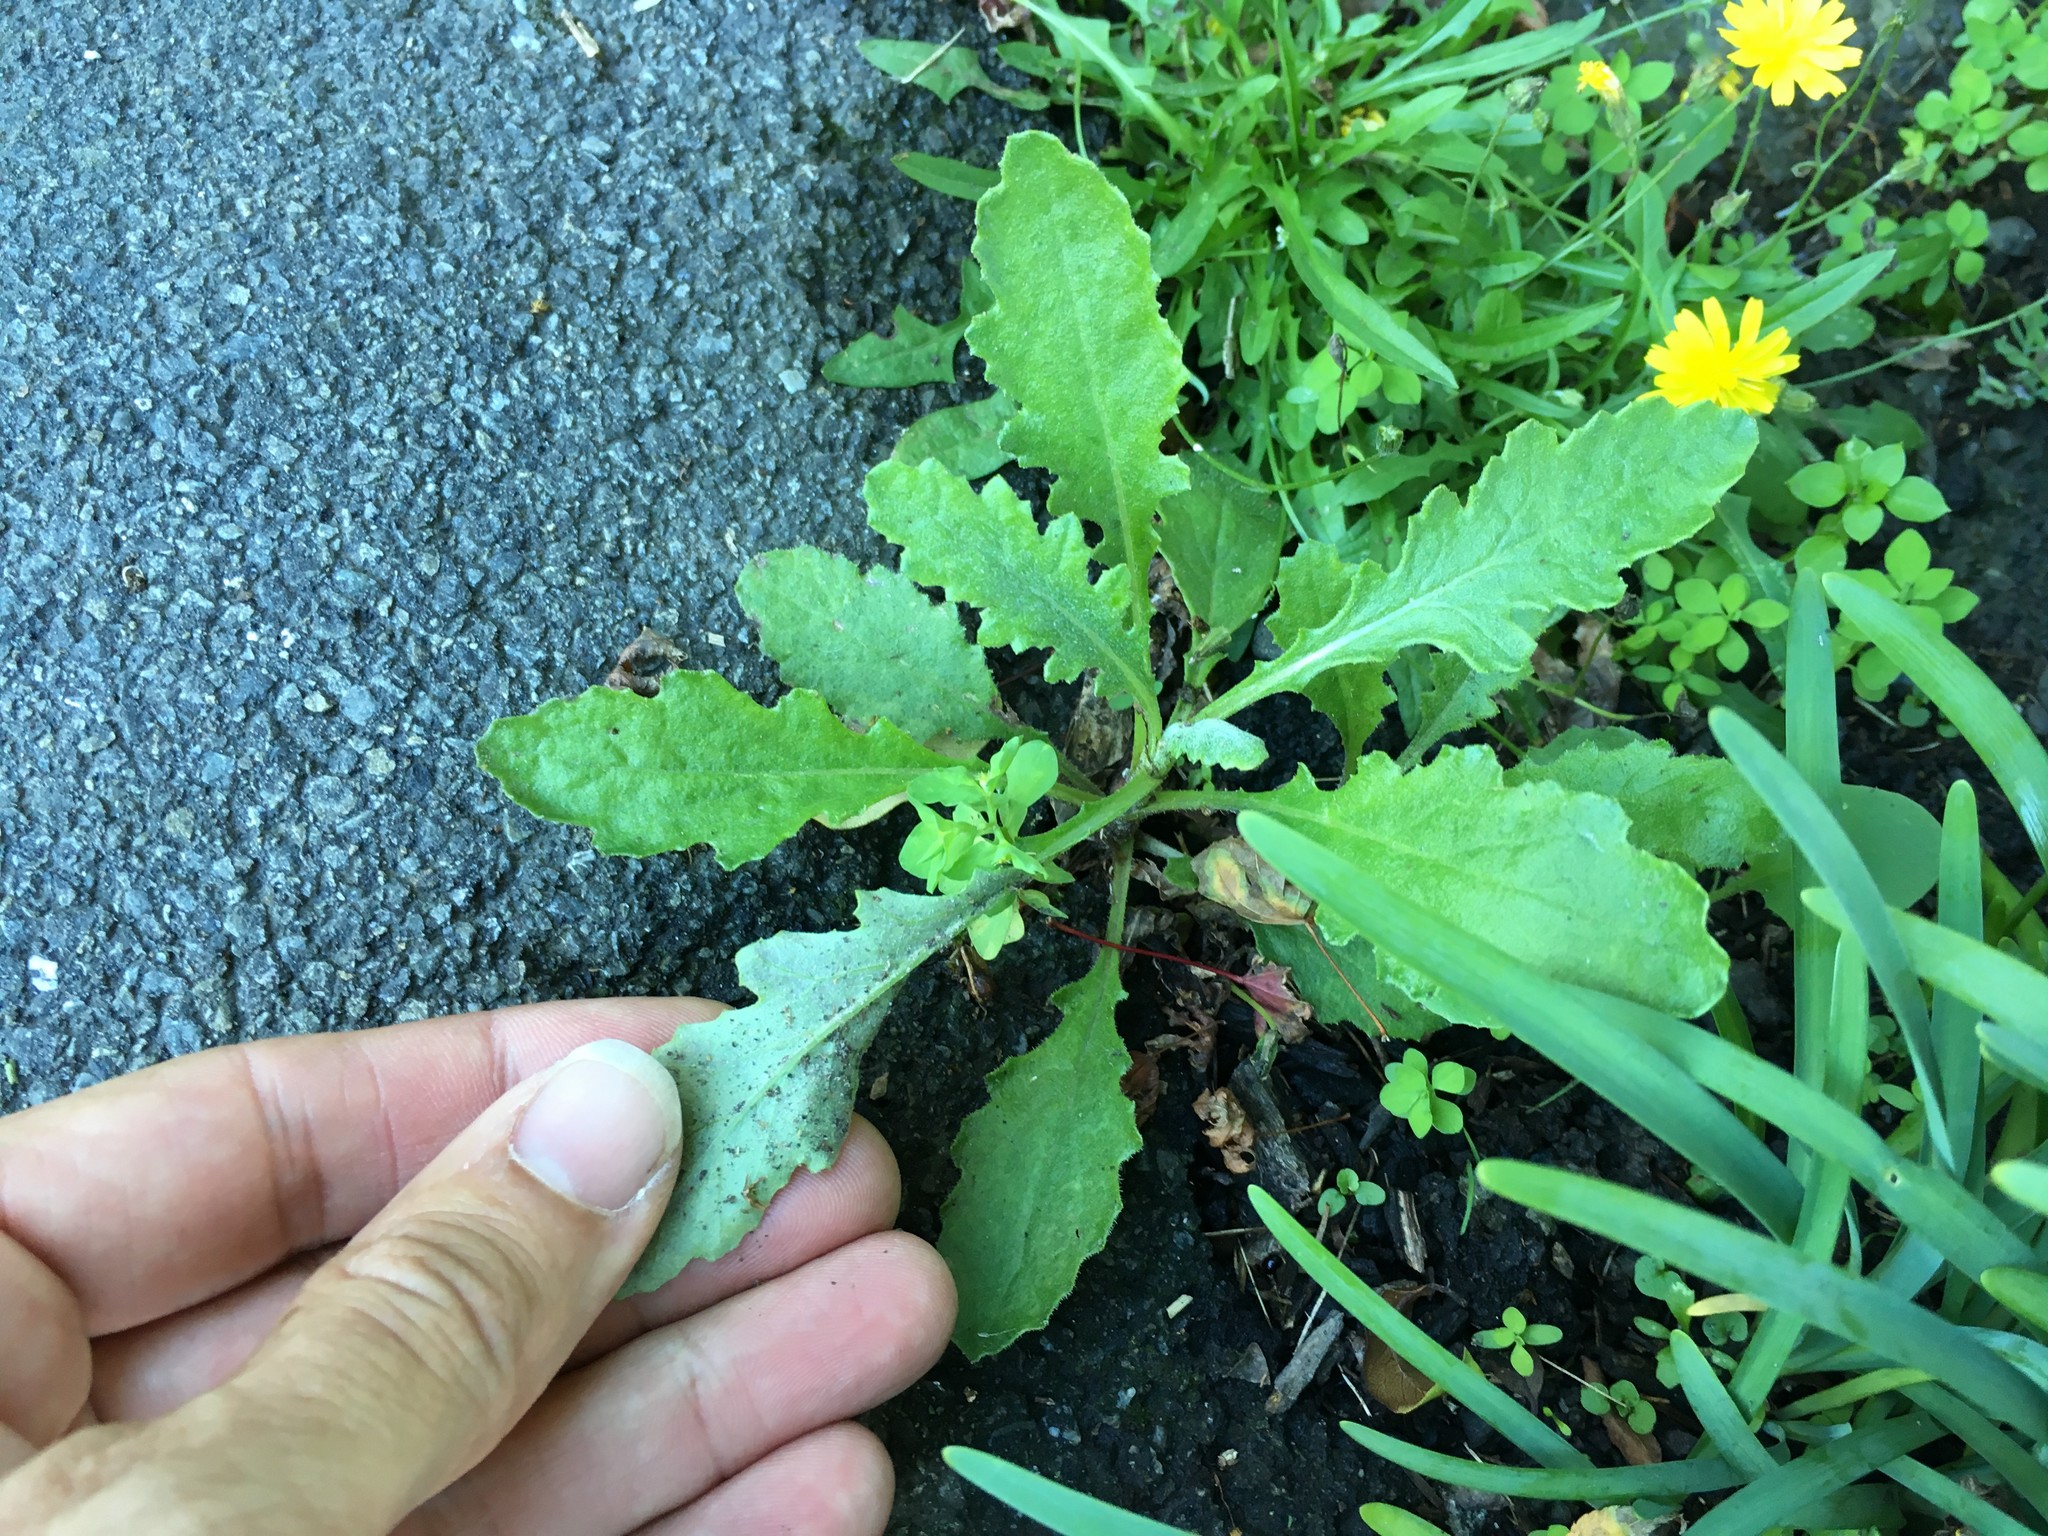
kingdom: Plantae
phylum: Tracheophyta
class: Magnoliopsida
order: Asterales
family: Asteraceae
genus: Senecio
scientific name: Senecio glomeratus
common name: Cutleaf burnweed
